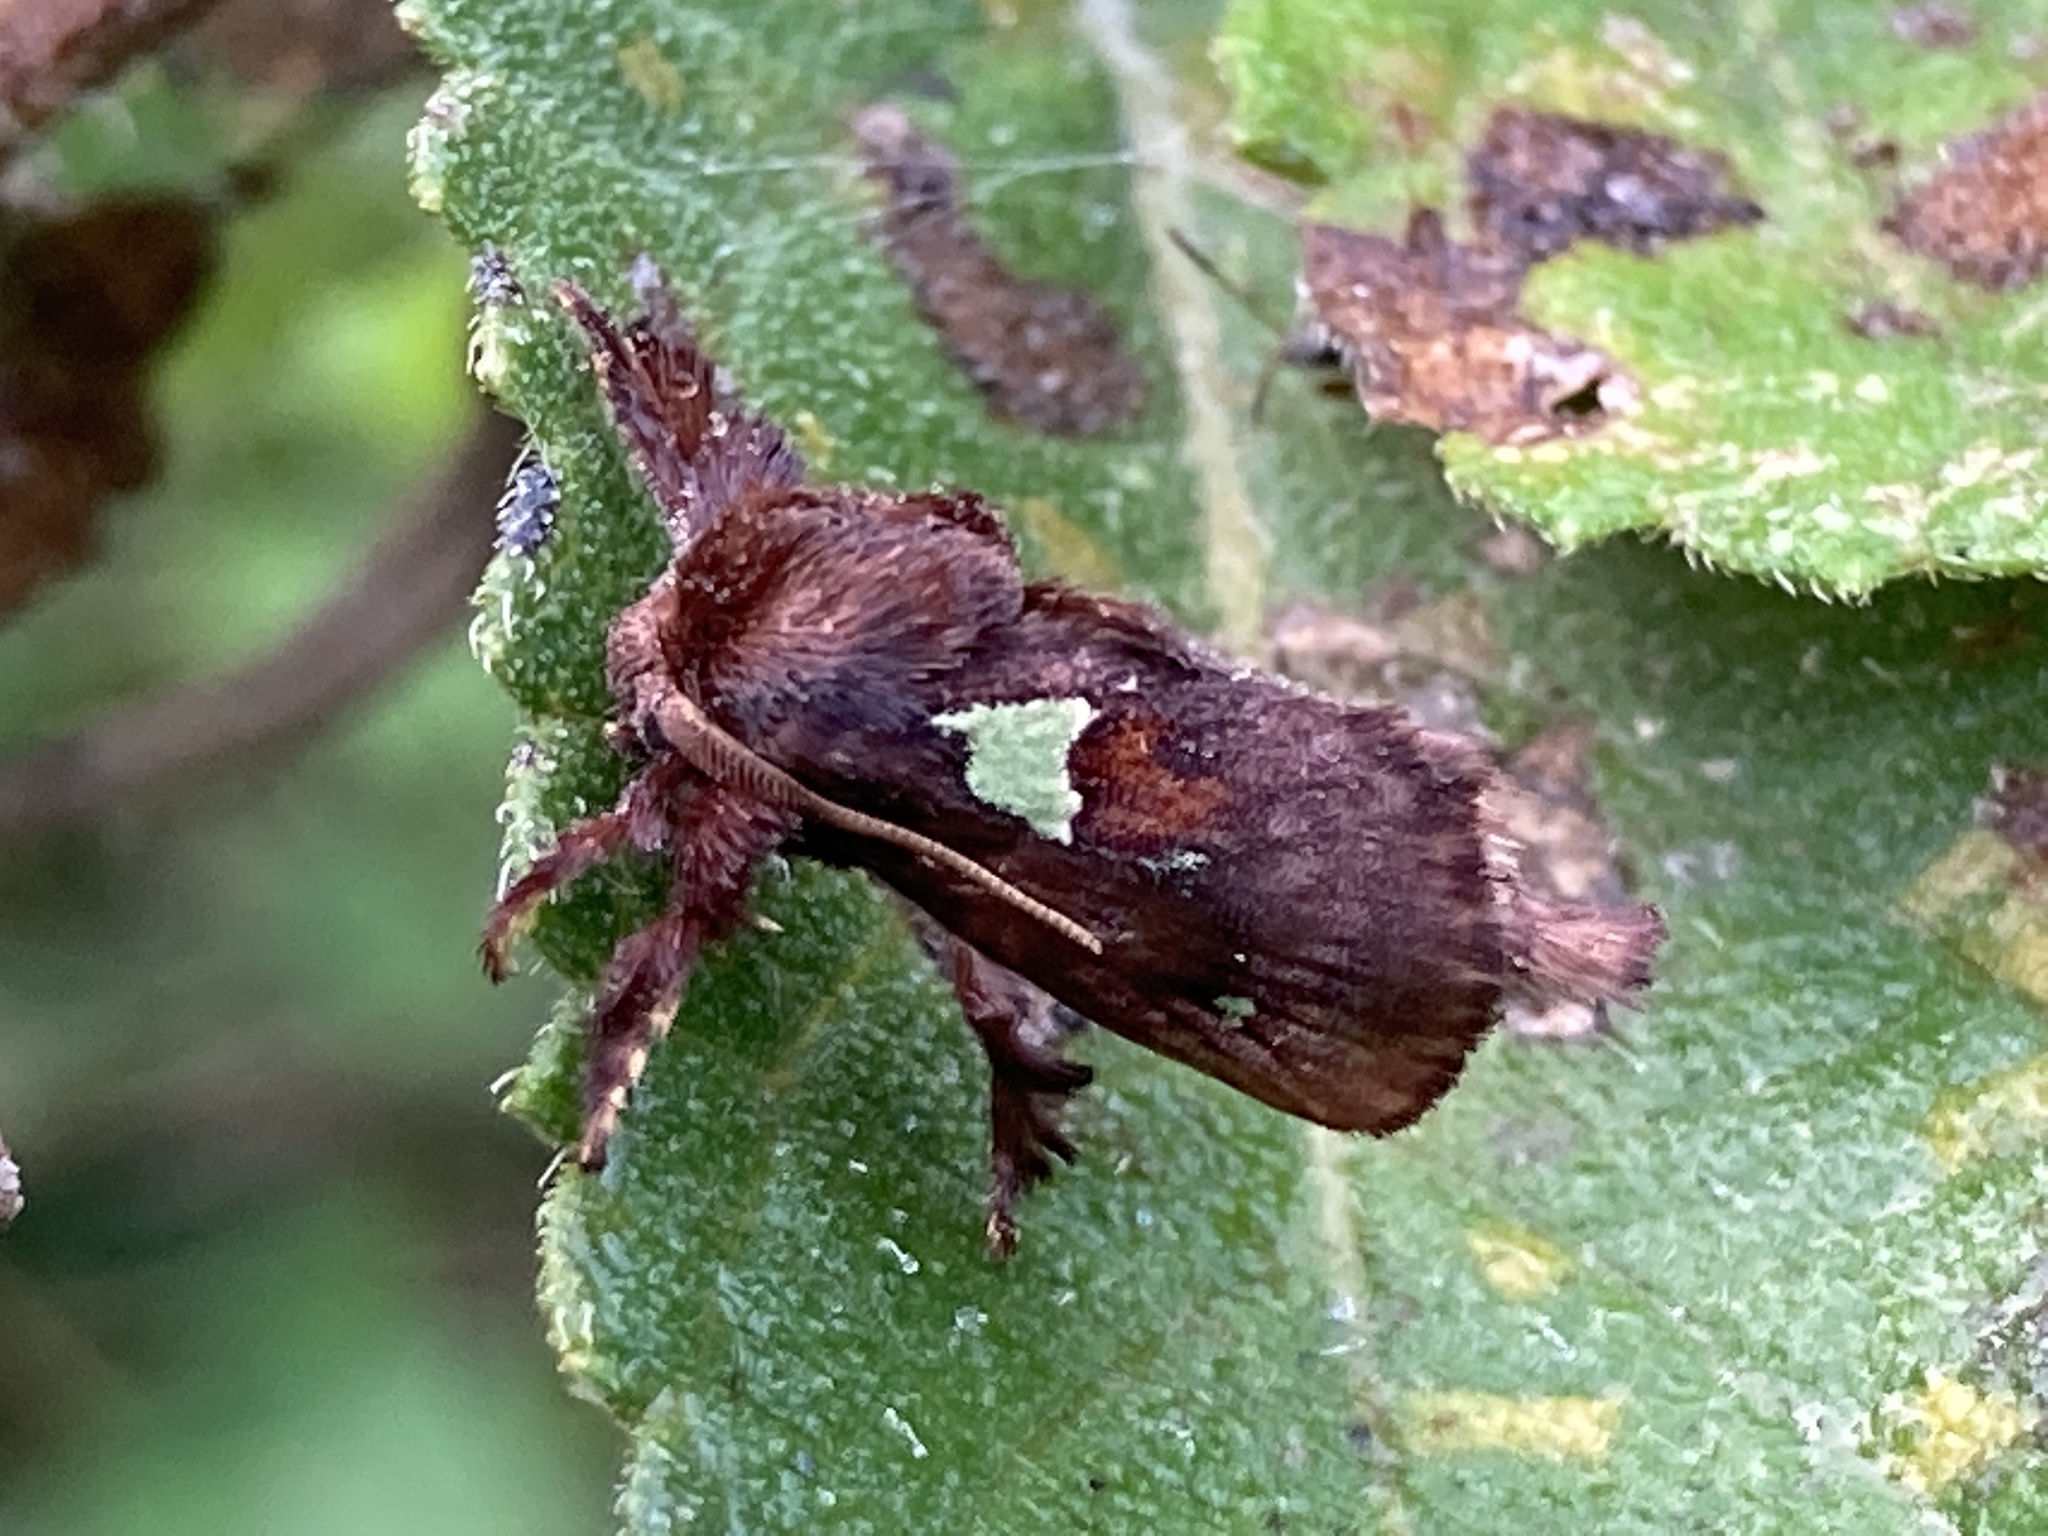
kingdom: Animalia
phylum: Arthropoda
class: Insecta
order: Lepidoptera
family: Limacodidae
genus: Euclea
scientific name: Euclea delphinii
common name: Spiny oak-slug moth
